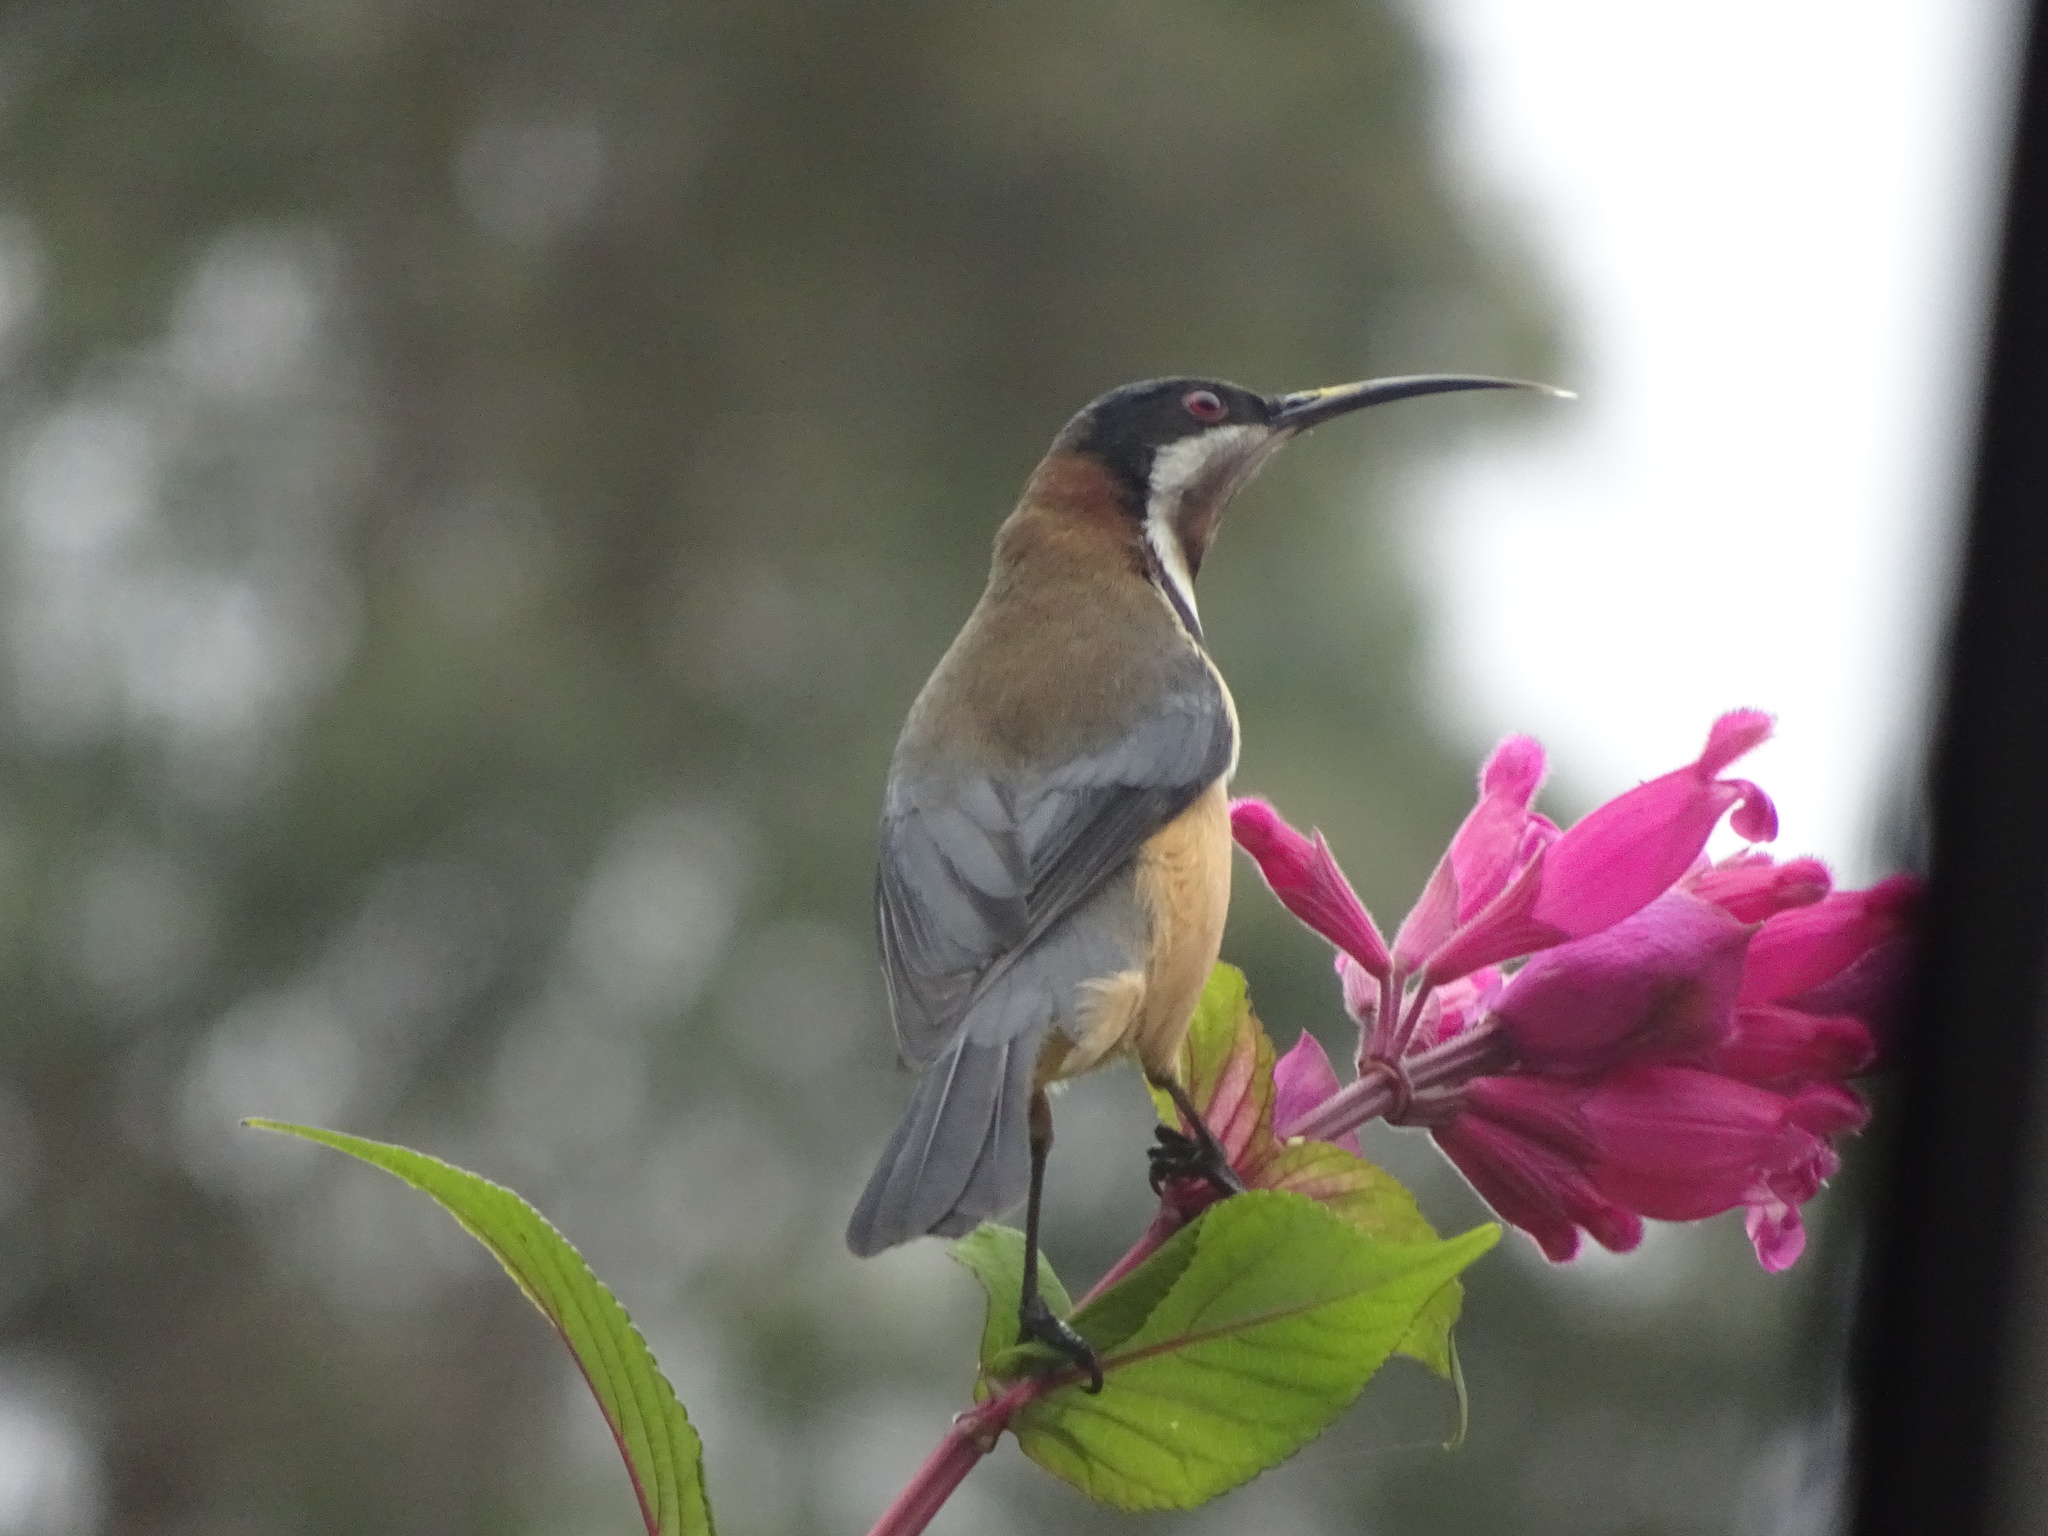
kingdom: Animalia
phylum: Chordata
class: Aves
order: Passeriformes
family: Meliphagidae
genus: Acanthorhynchus
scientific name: Acanthorhynchus tenuirostris
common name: Eastern spinebill
